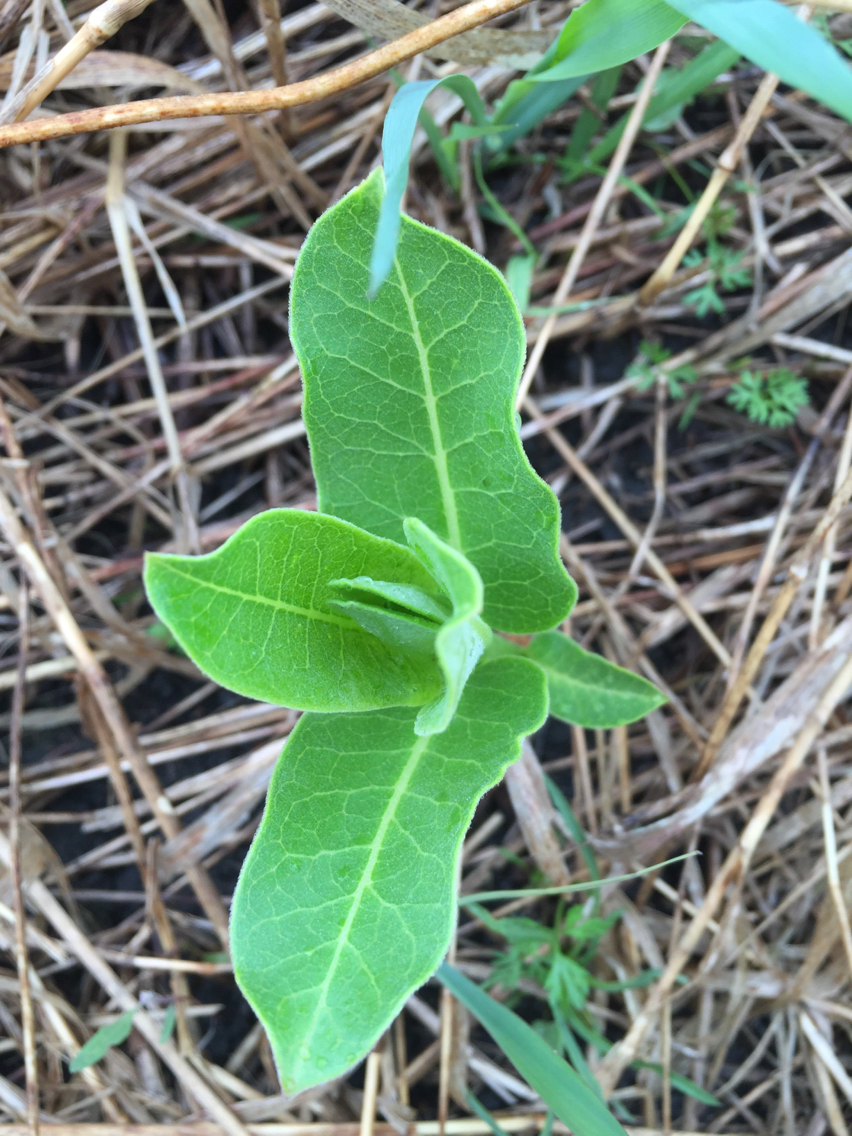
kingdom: Plantae
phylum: Tracheophyta
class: Magnoliopsida
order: Gentianales
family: Apocynaceae
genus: Asclepias
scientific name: Asclepias syriaca
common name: Common milkweed
